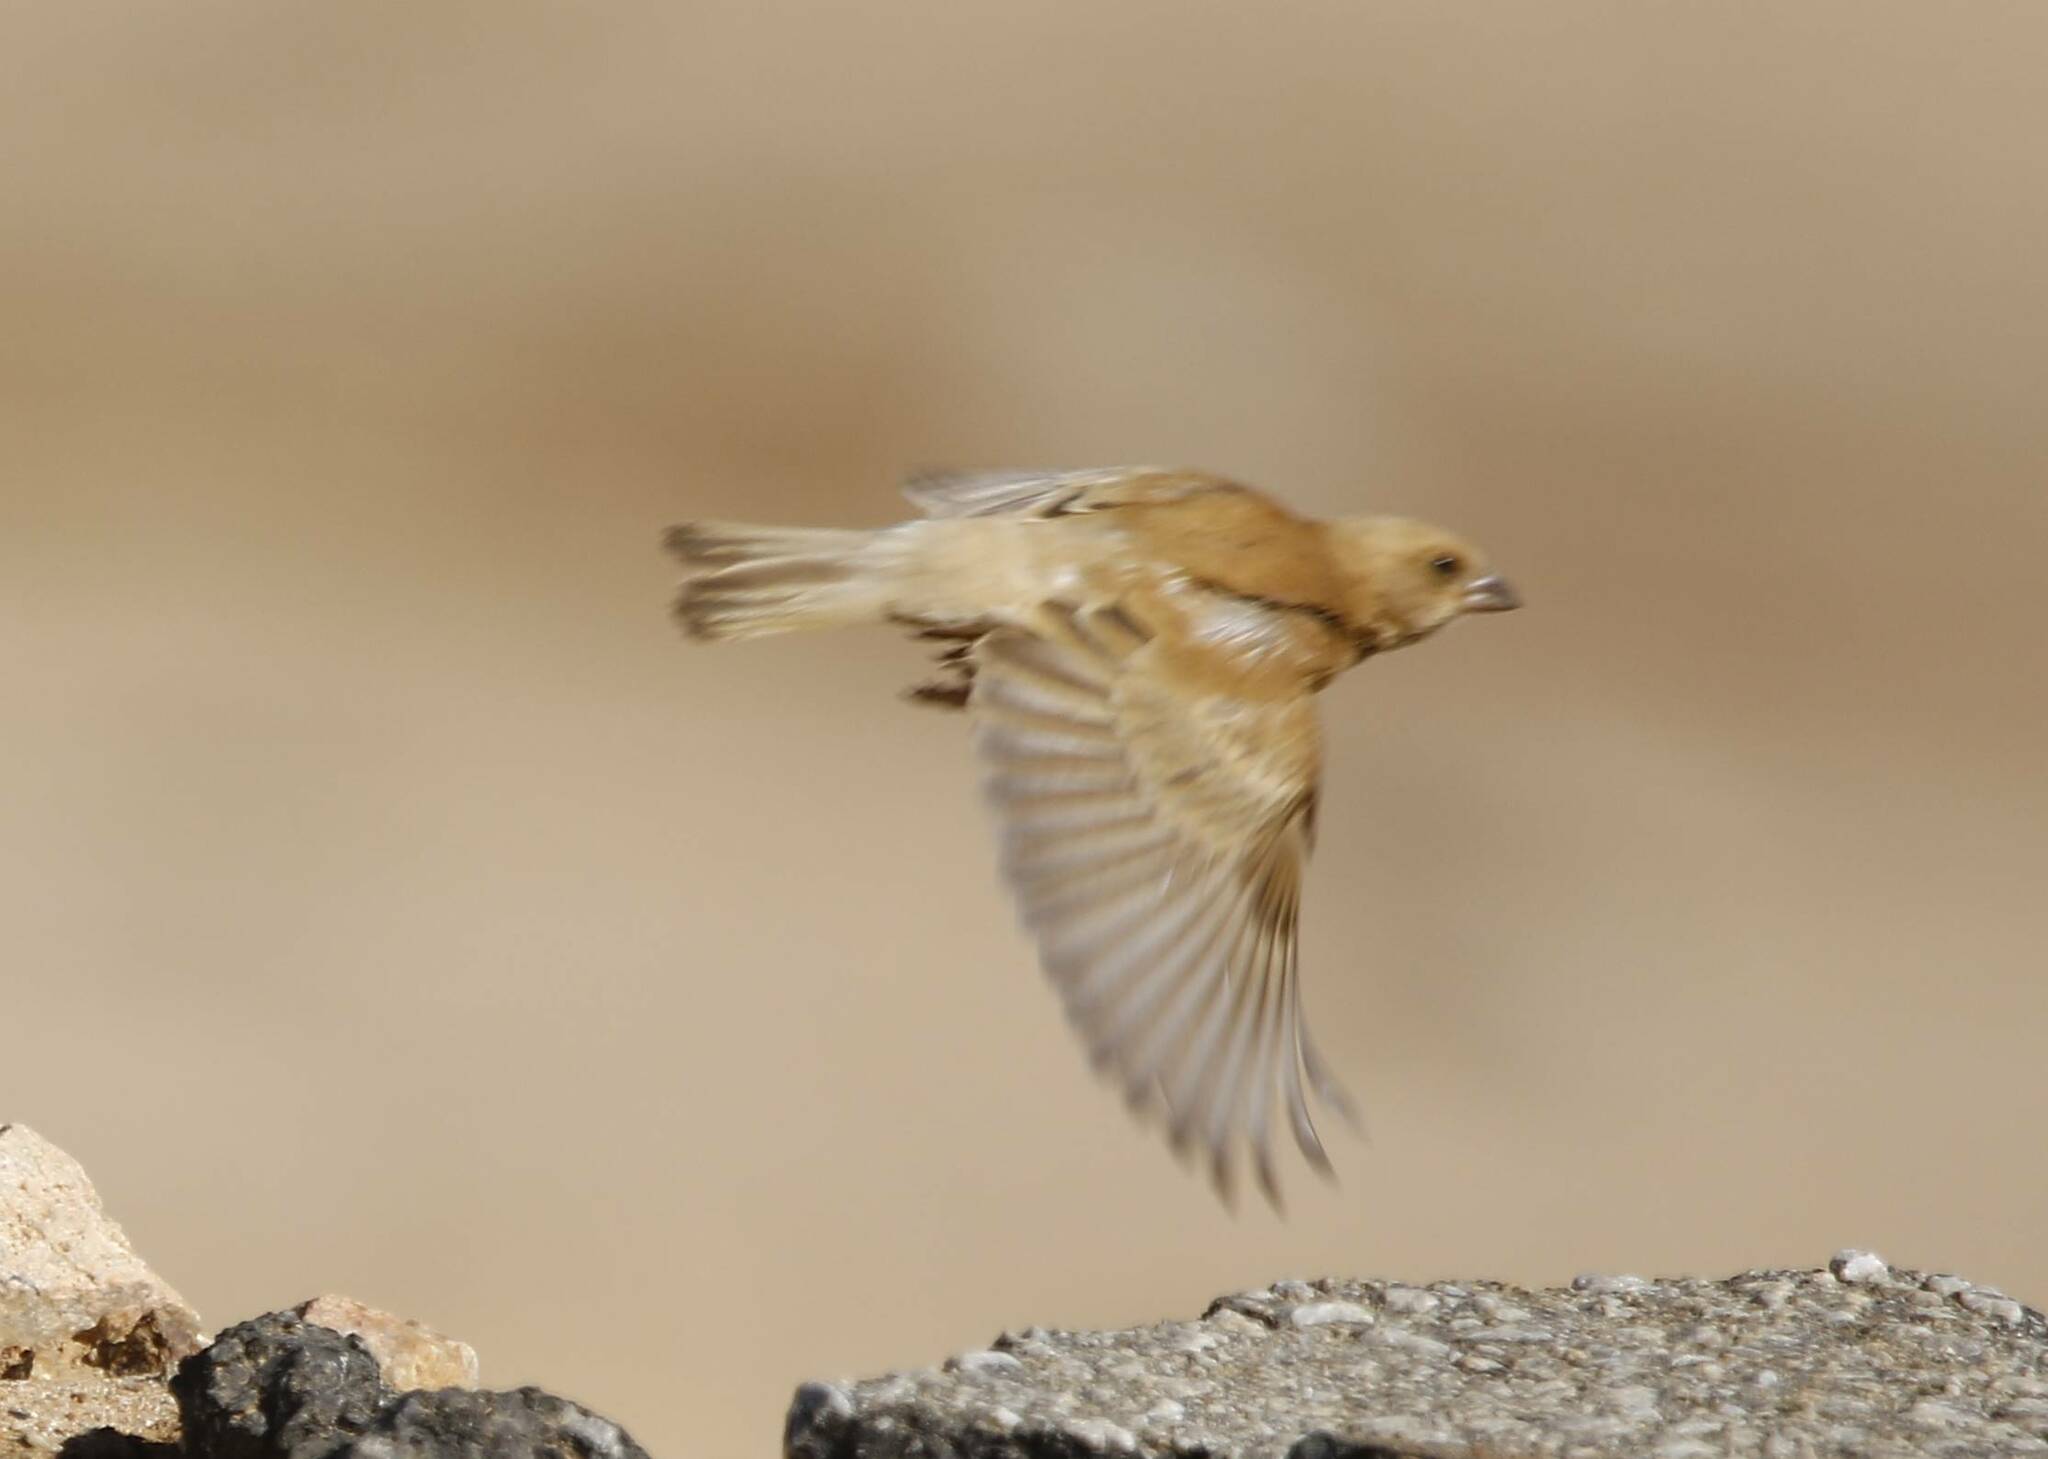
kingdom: Animalia
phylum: Chordata
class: Aves
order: Passeriformes
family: Passeridae
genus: Passer
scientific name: Passer simplex
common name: Desert sparrow
